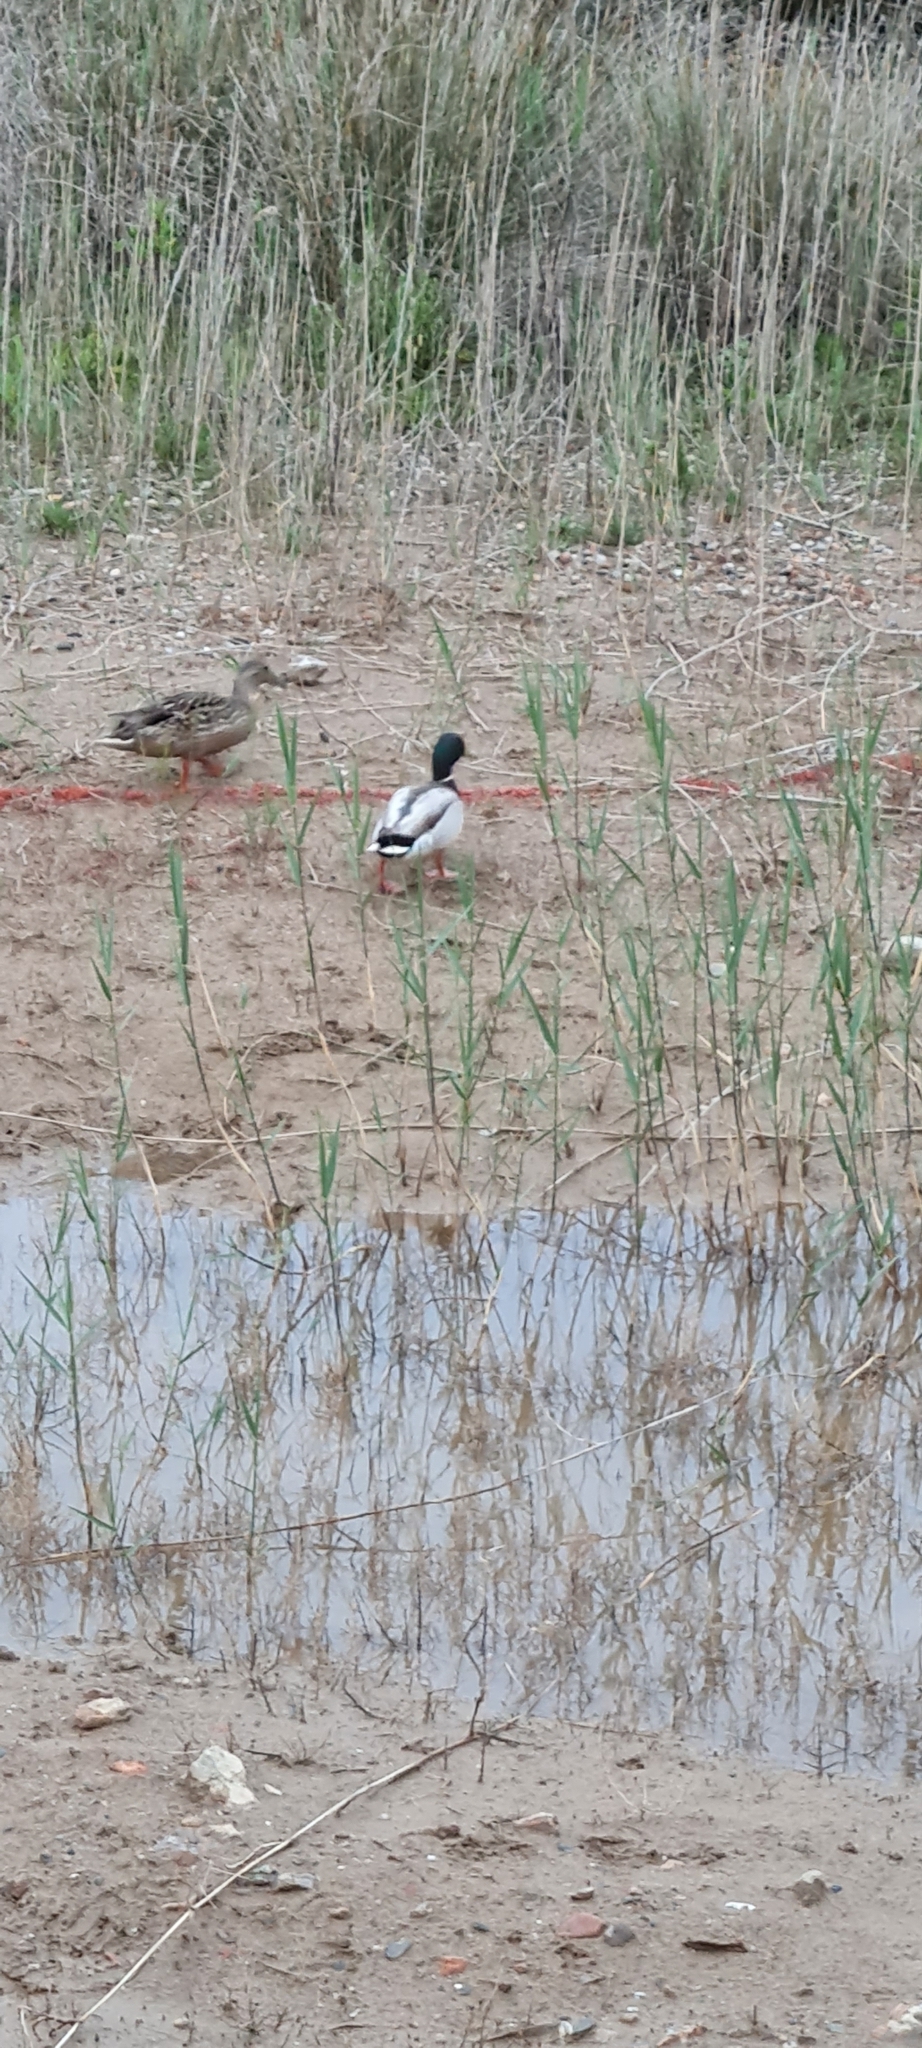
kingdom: Animalia
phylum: Chordata
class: Aves
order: Anseriformes
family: Anatidae
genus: Anas
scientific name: Anas platyrhynchos
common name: Mallard
